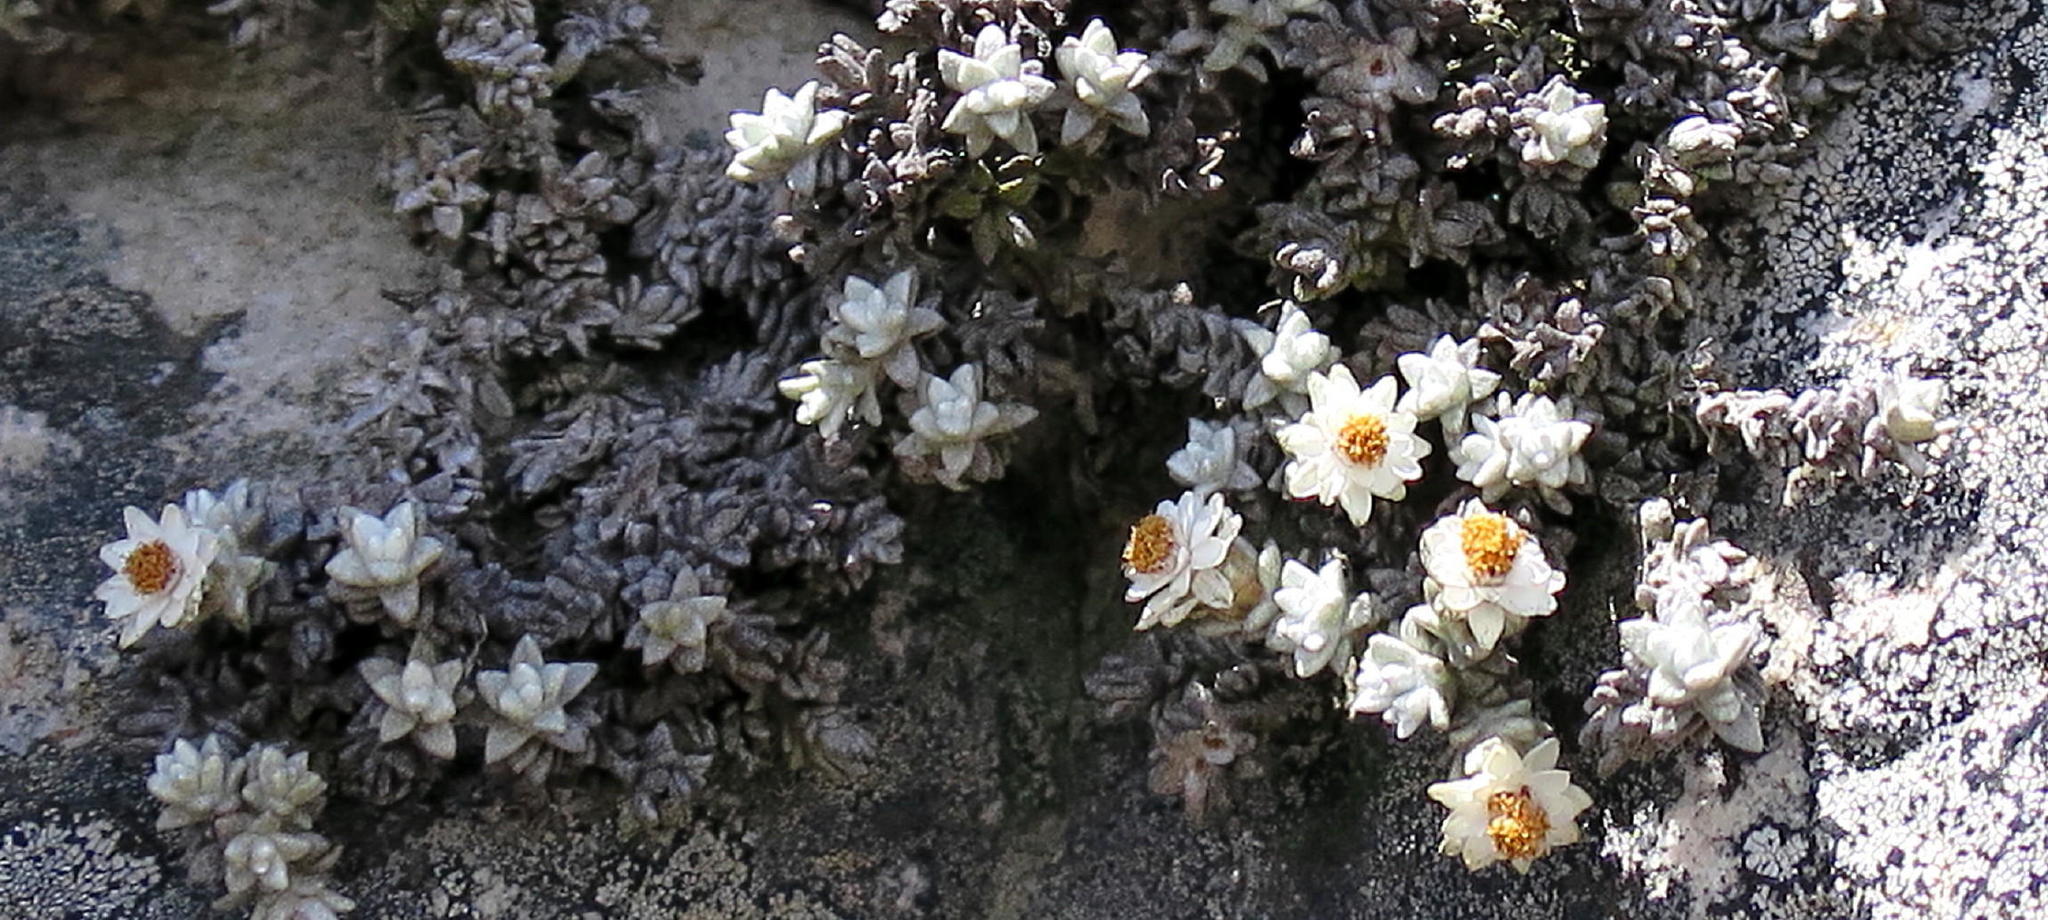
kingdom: Plantae
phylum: Tracheophyta
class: Magnoliopsida
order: Asterales
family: Asteraceae
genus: Helichrysum
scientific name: Helichrysum saxicola
